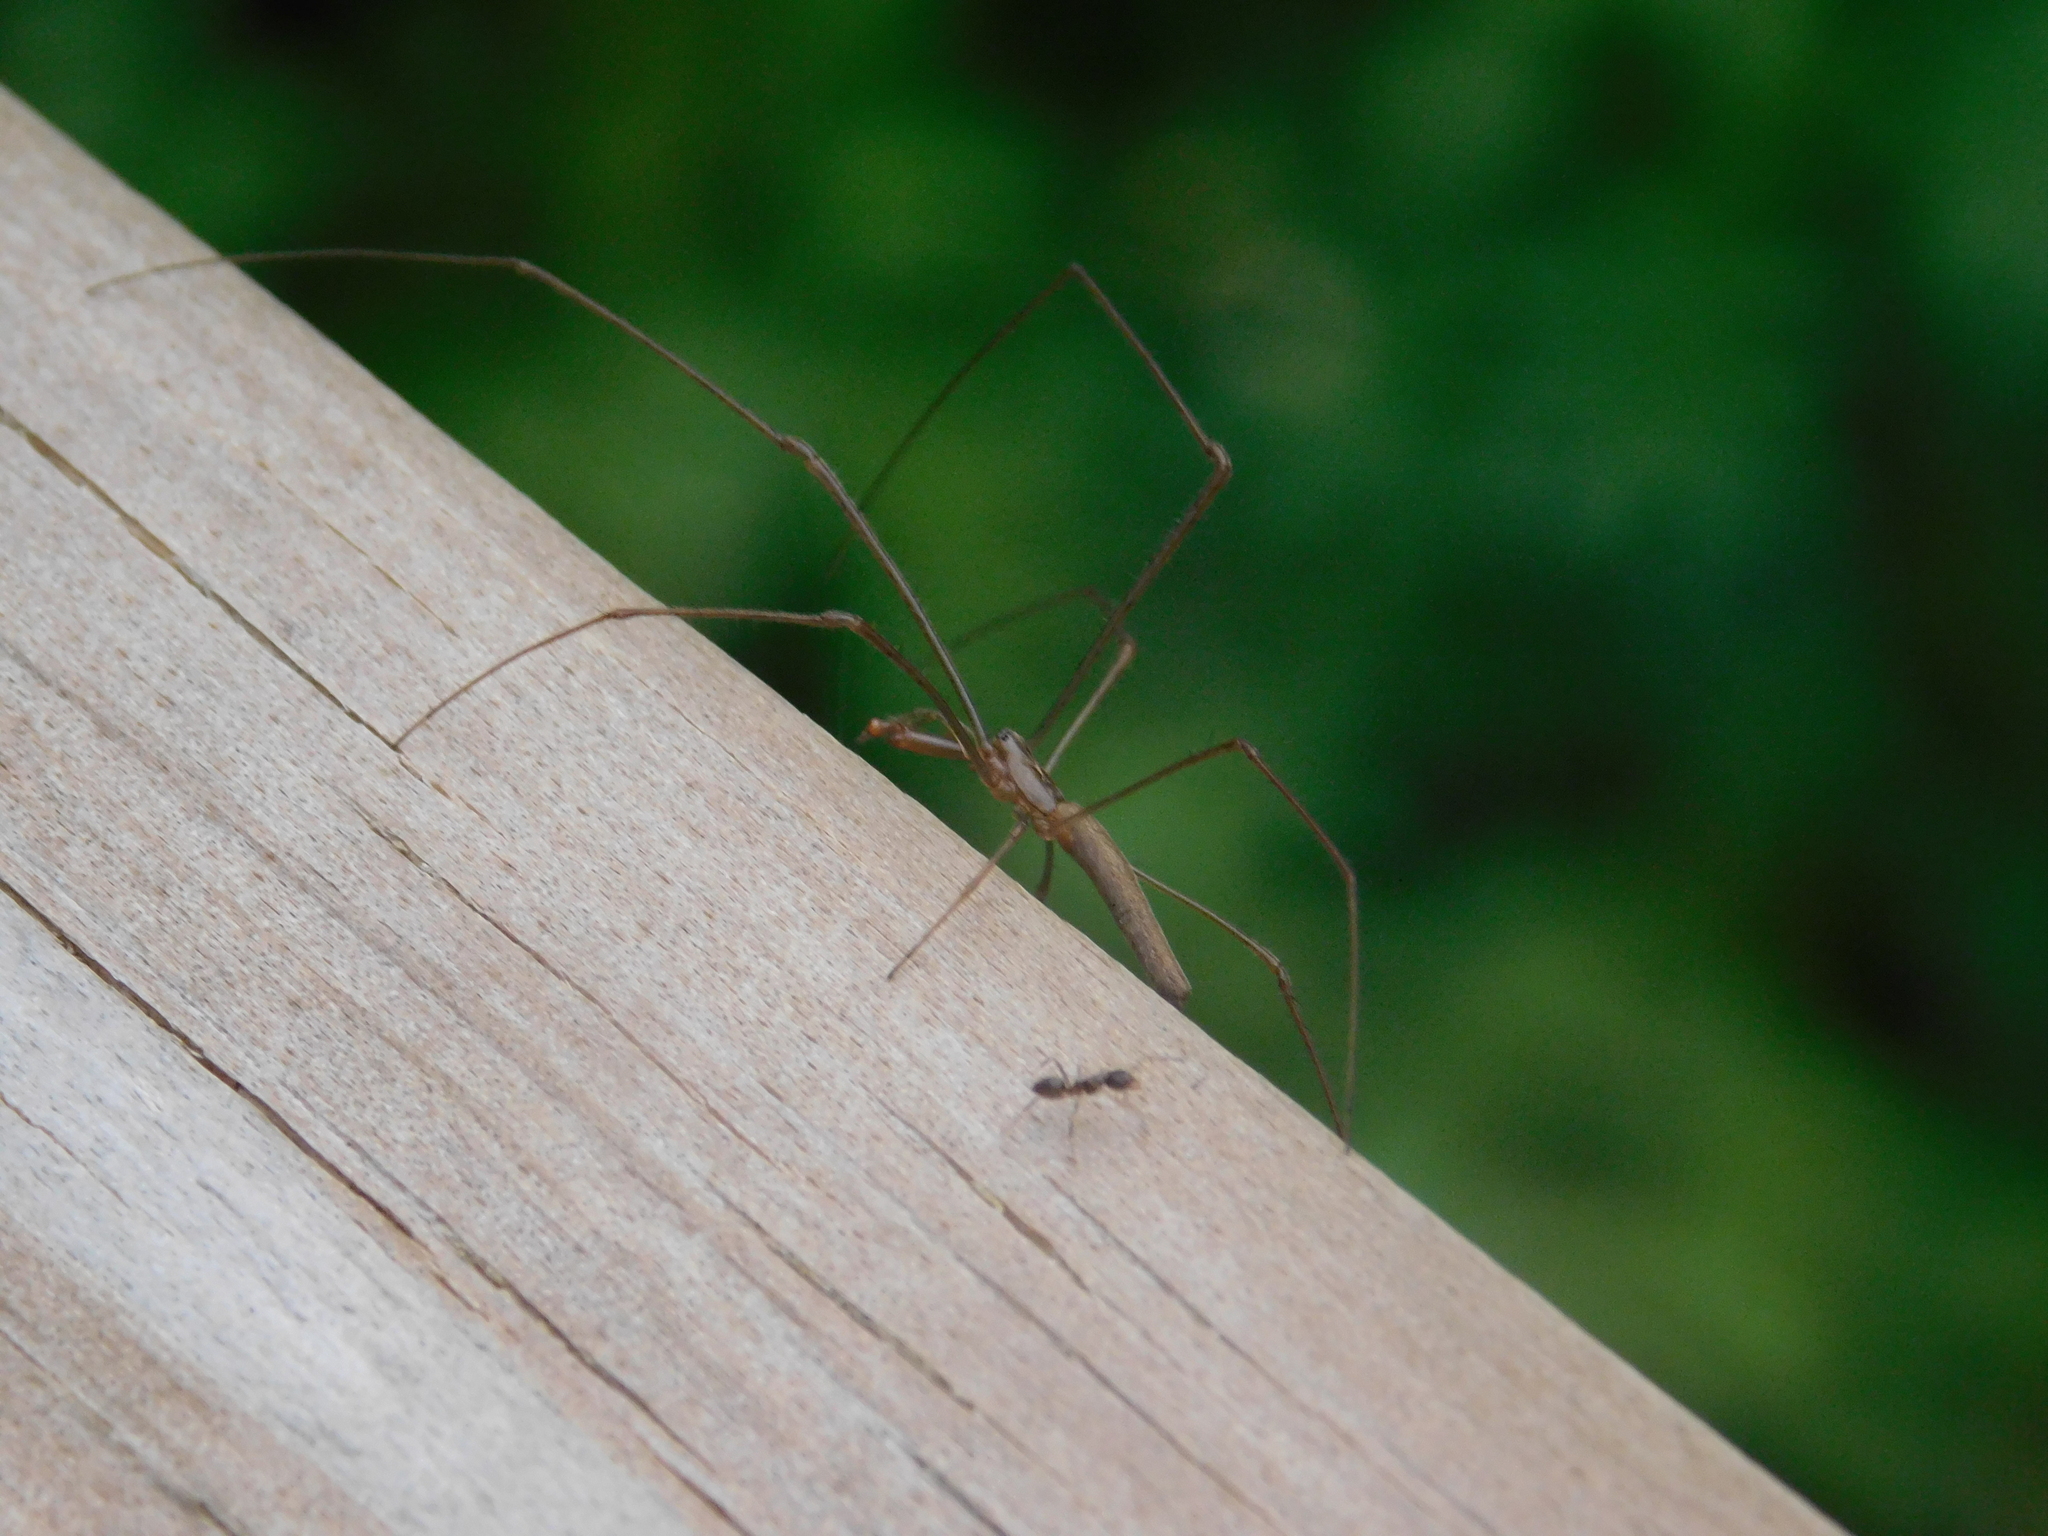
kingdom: Animalia
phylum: Arthropoda
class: Arachnida
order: Araneae
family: Tetragnathidae
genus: Tetragnatha
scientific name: Tetragnatha
